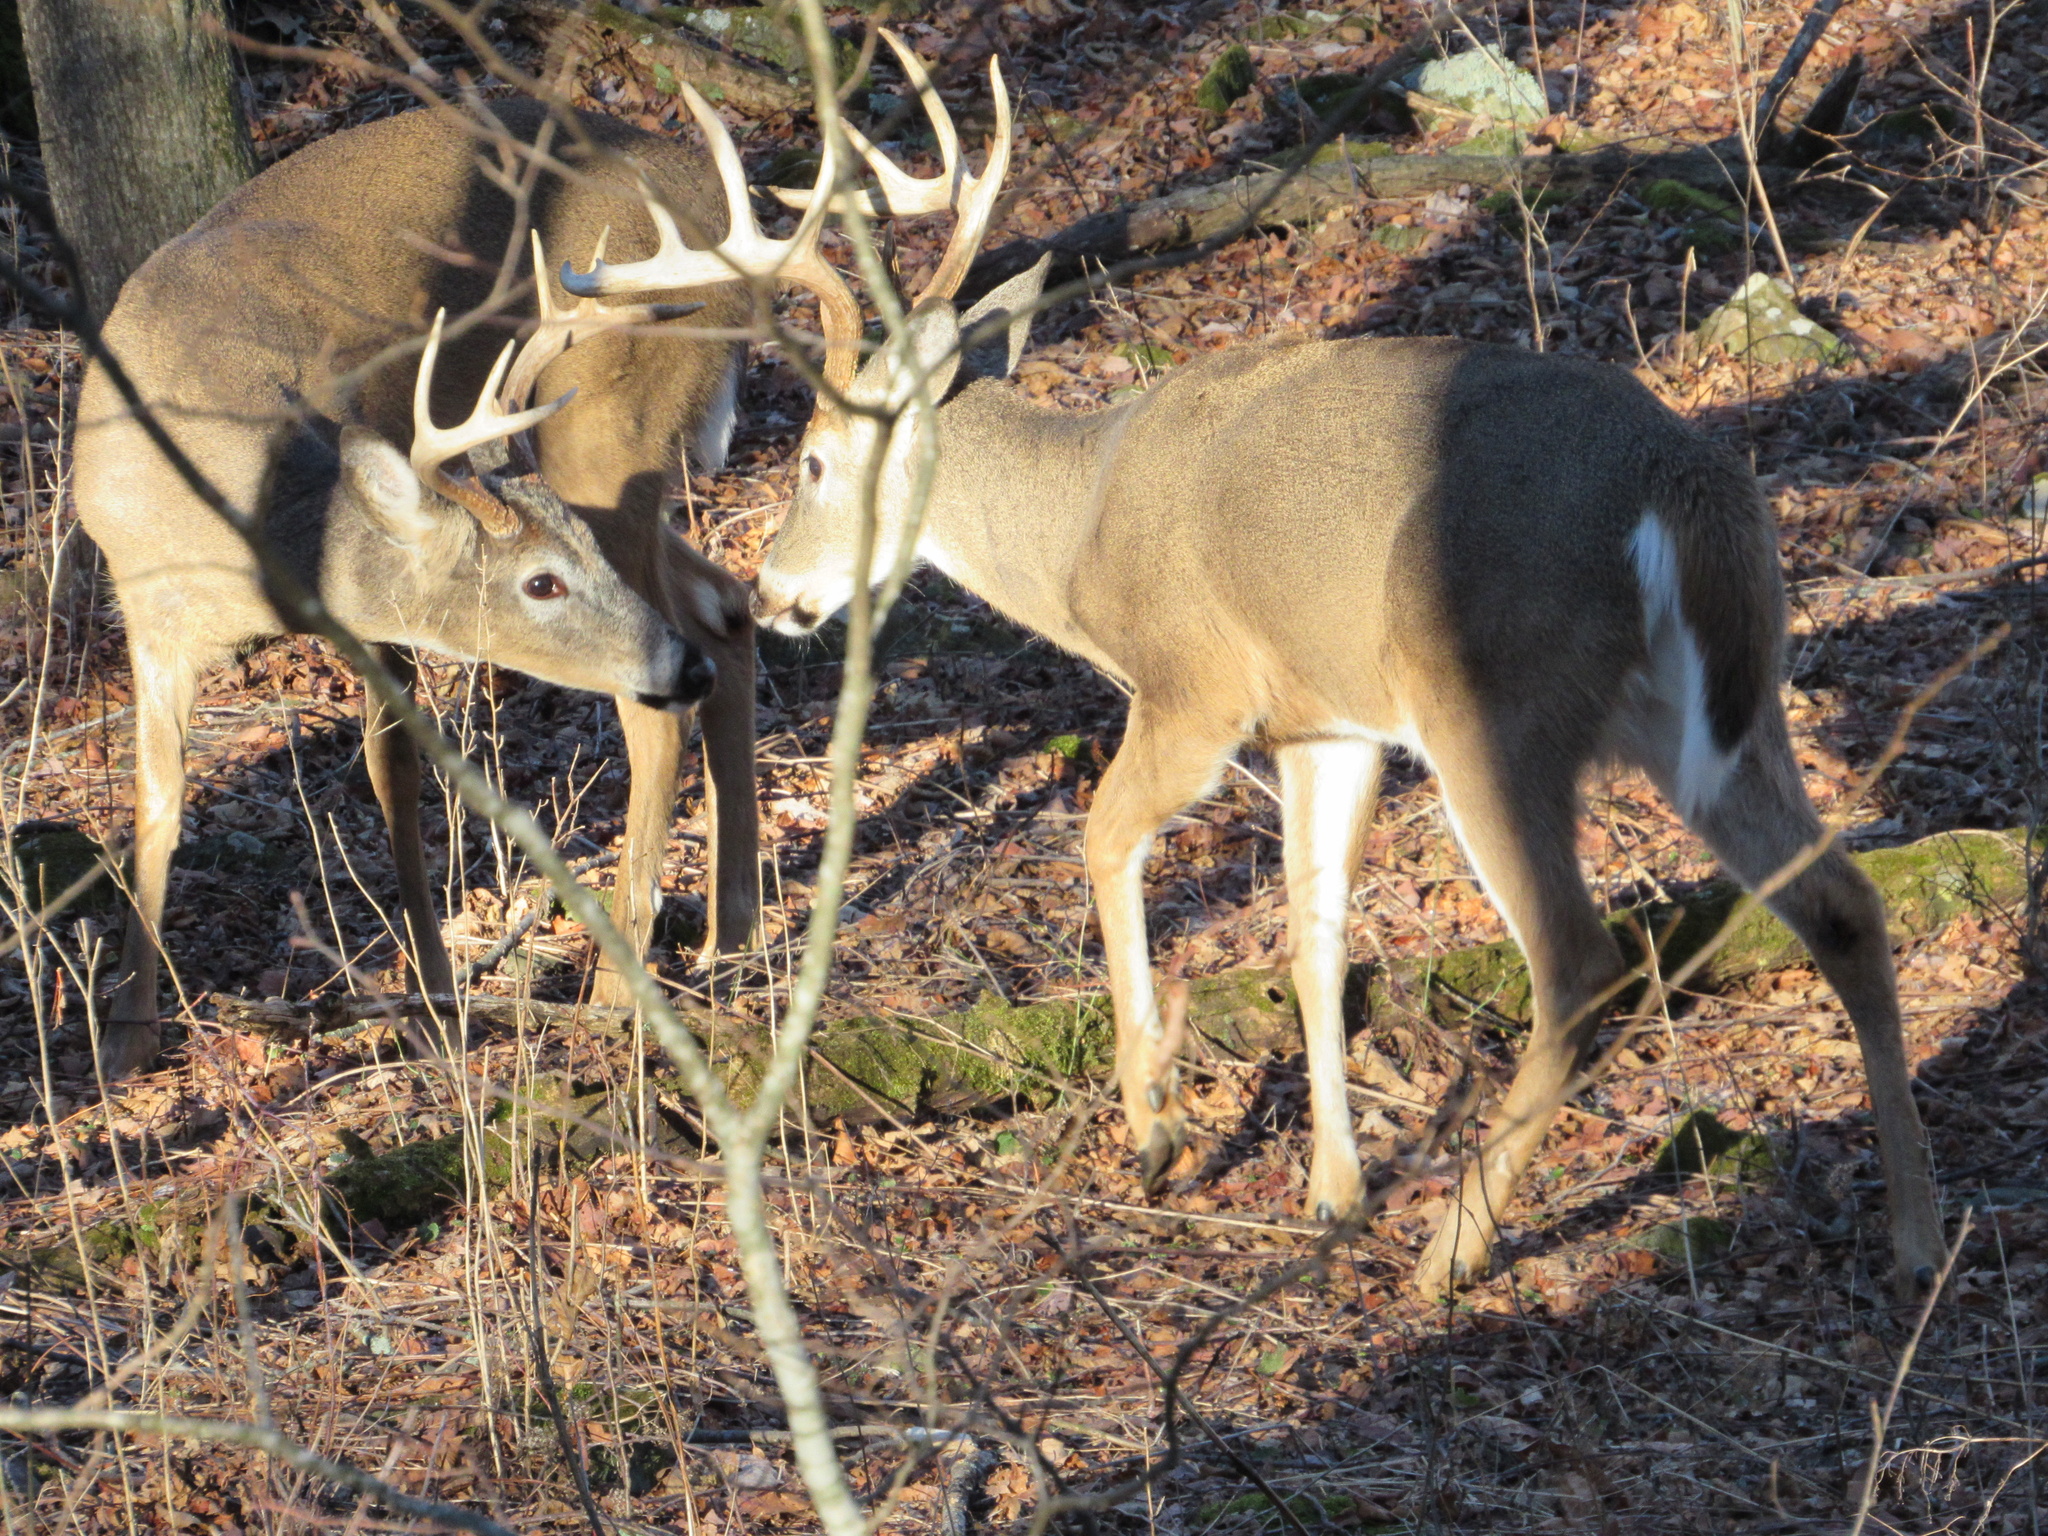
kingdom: Animalia
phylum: Chordata
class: Mammalia
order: Artiodactyla
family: Cervidae
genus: Odocoileus
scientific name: Odocoileus virginianus
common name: White-tailed deer
